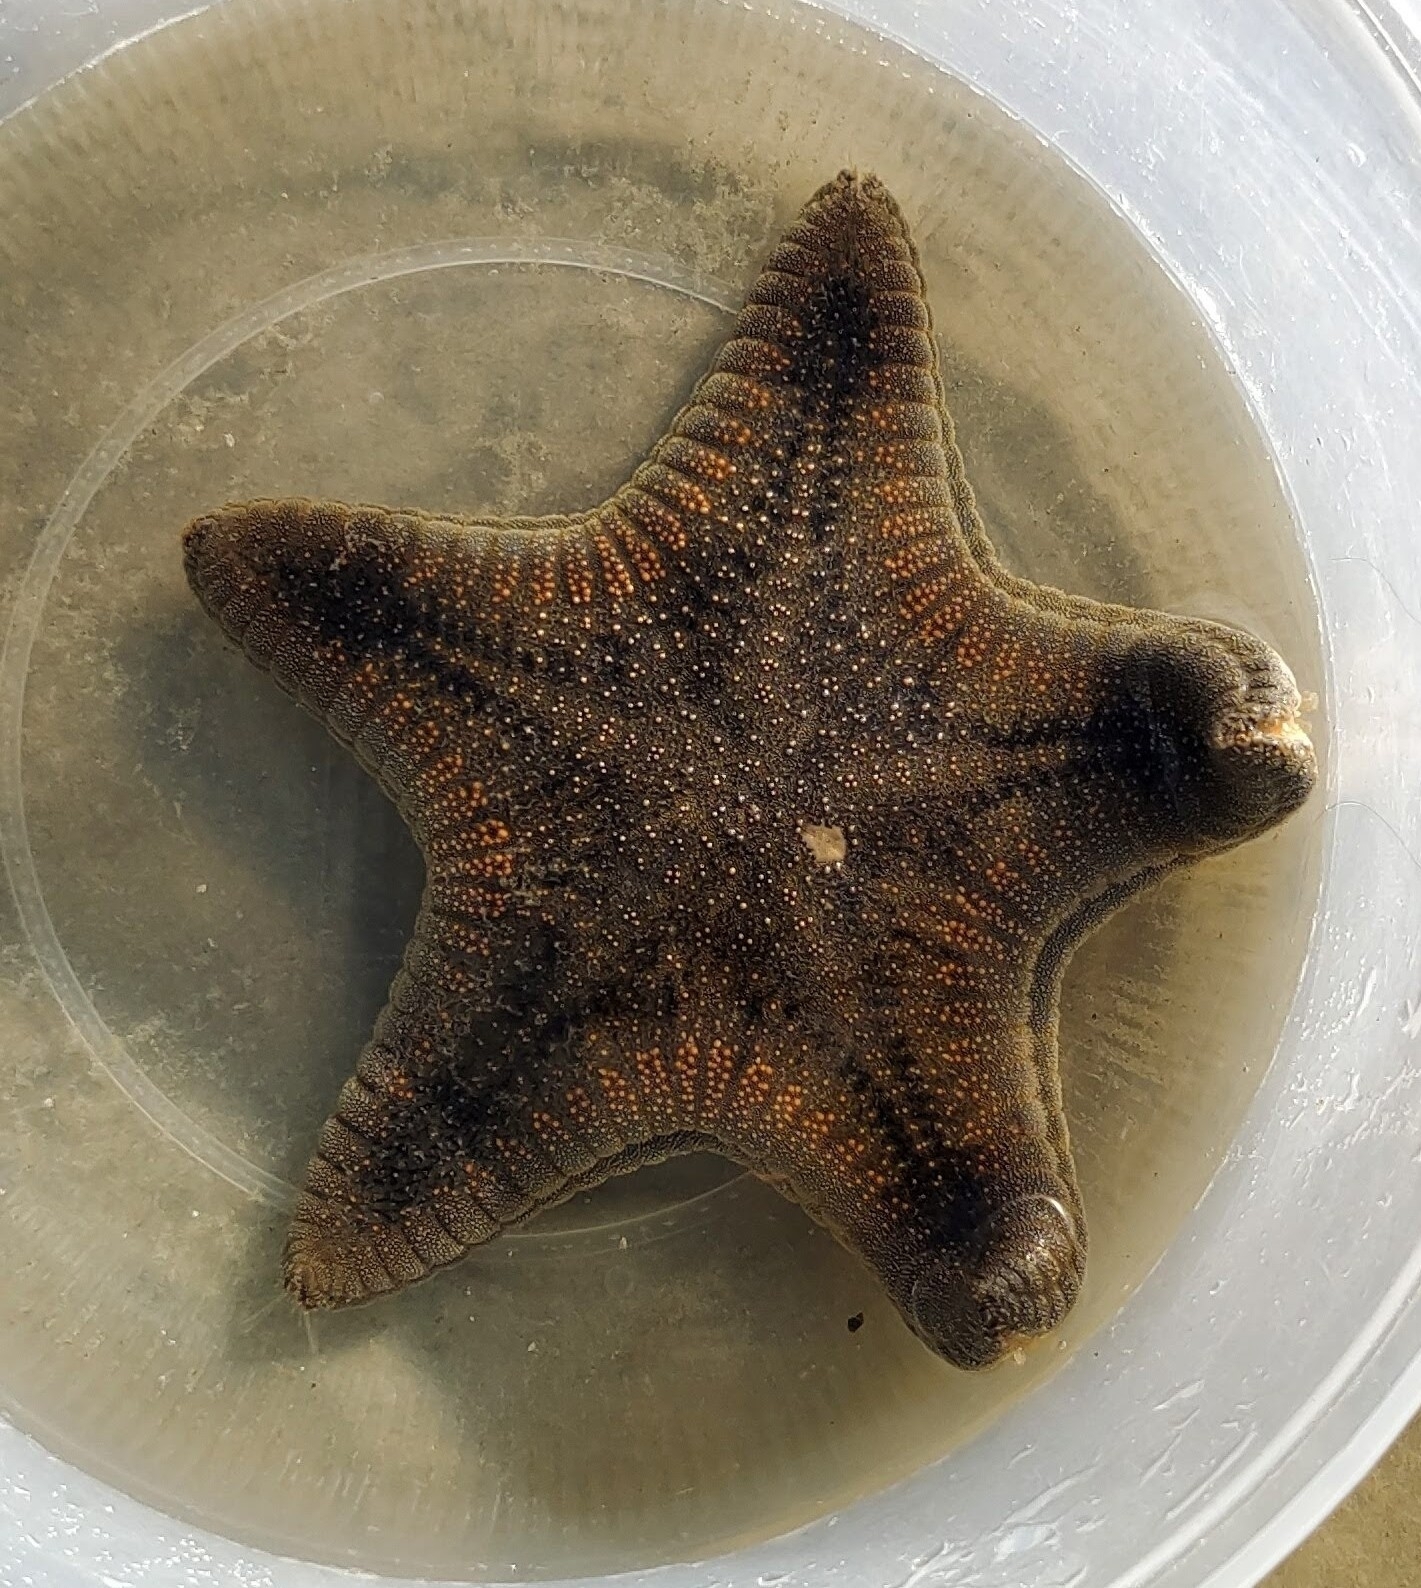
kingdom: Animalia
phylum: Echinodermata
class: Asteroidea
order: Valvatida
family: Goniasteridae
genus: Goniodiscaster
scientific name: Goniodiscaster scaber
